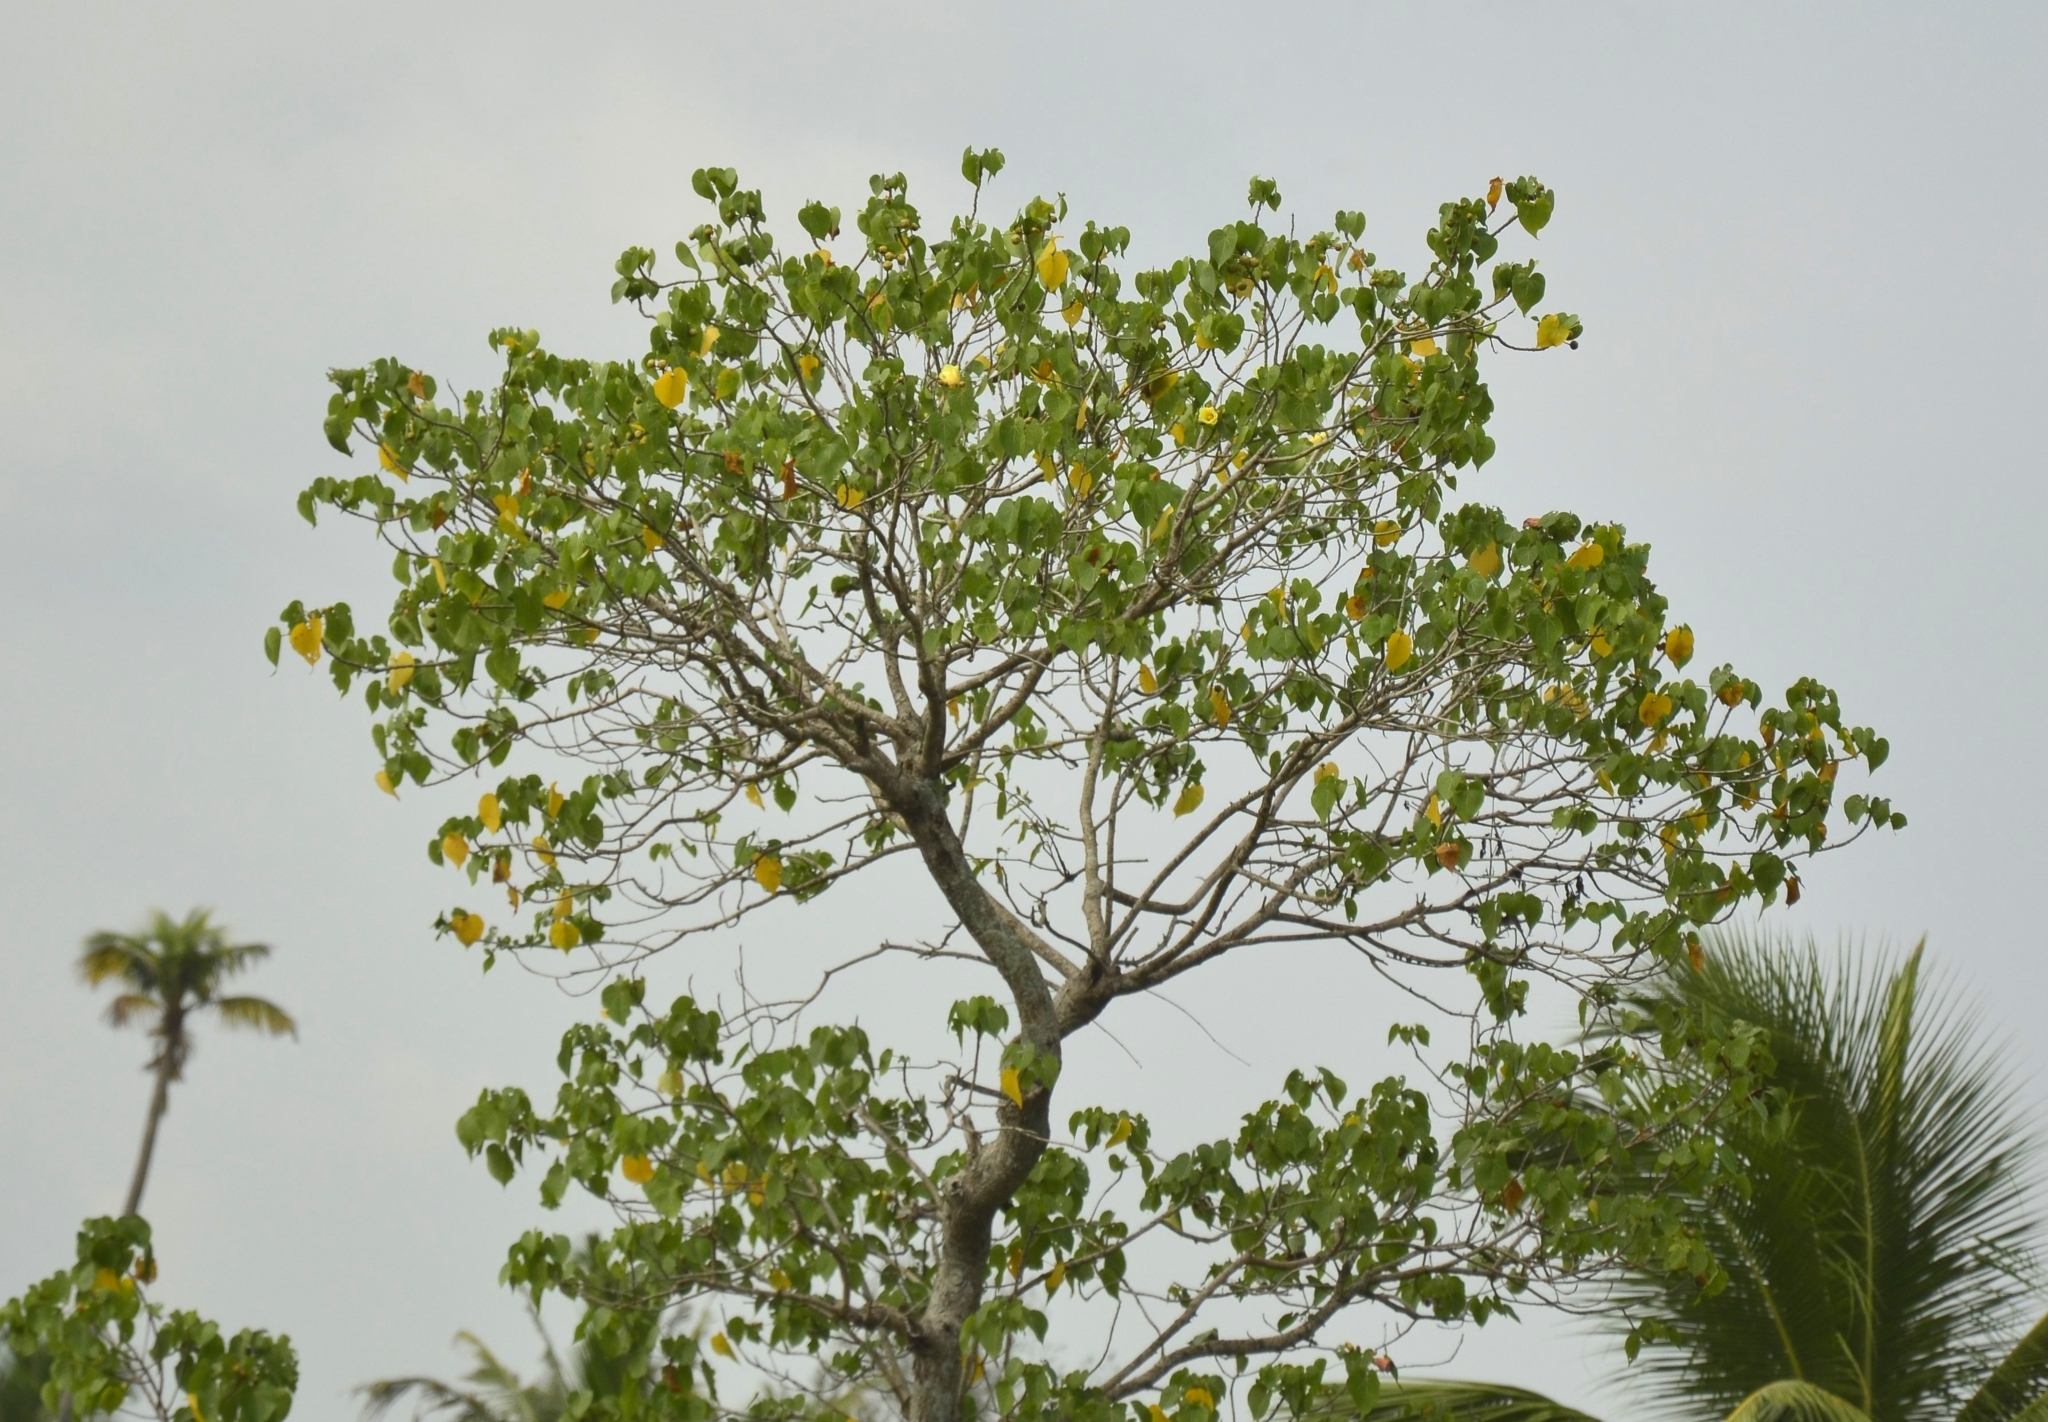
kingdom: Plantae
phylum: Tracheophyta
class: Magnoliopsida
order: Malvales
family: Malvaceae
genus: Thespesia
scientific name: Thespesia populnea
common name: Seaside mahoe
